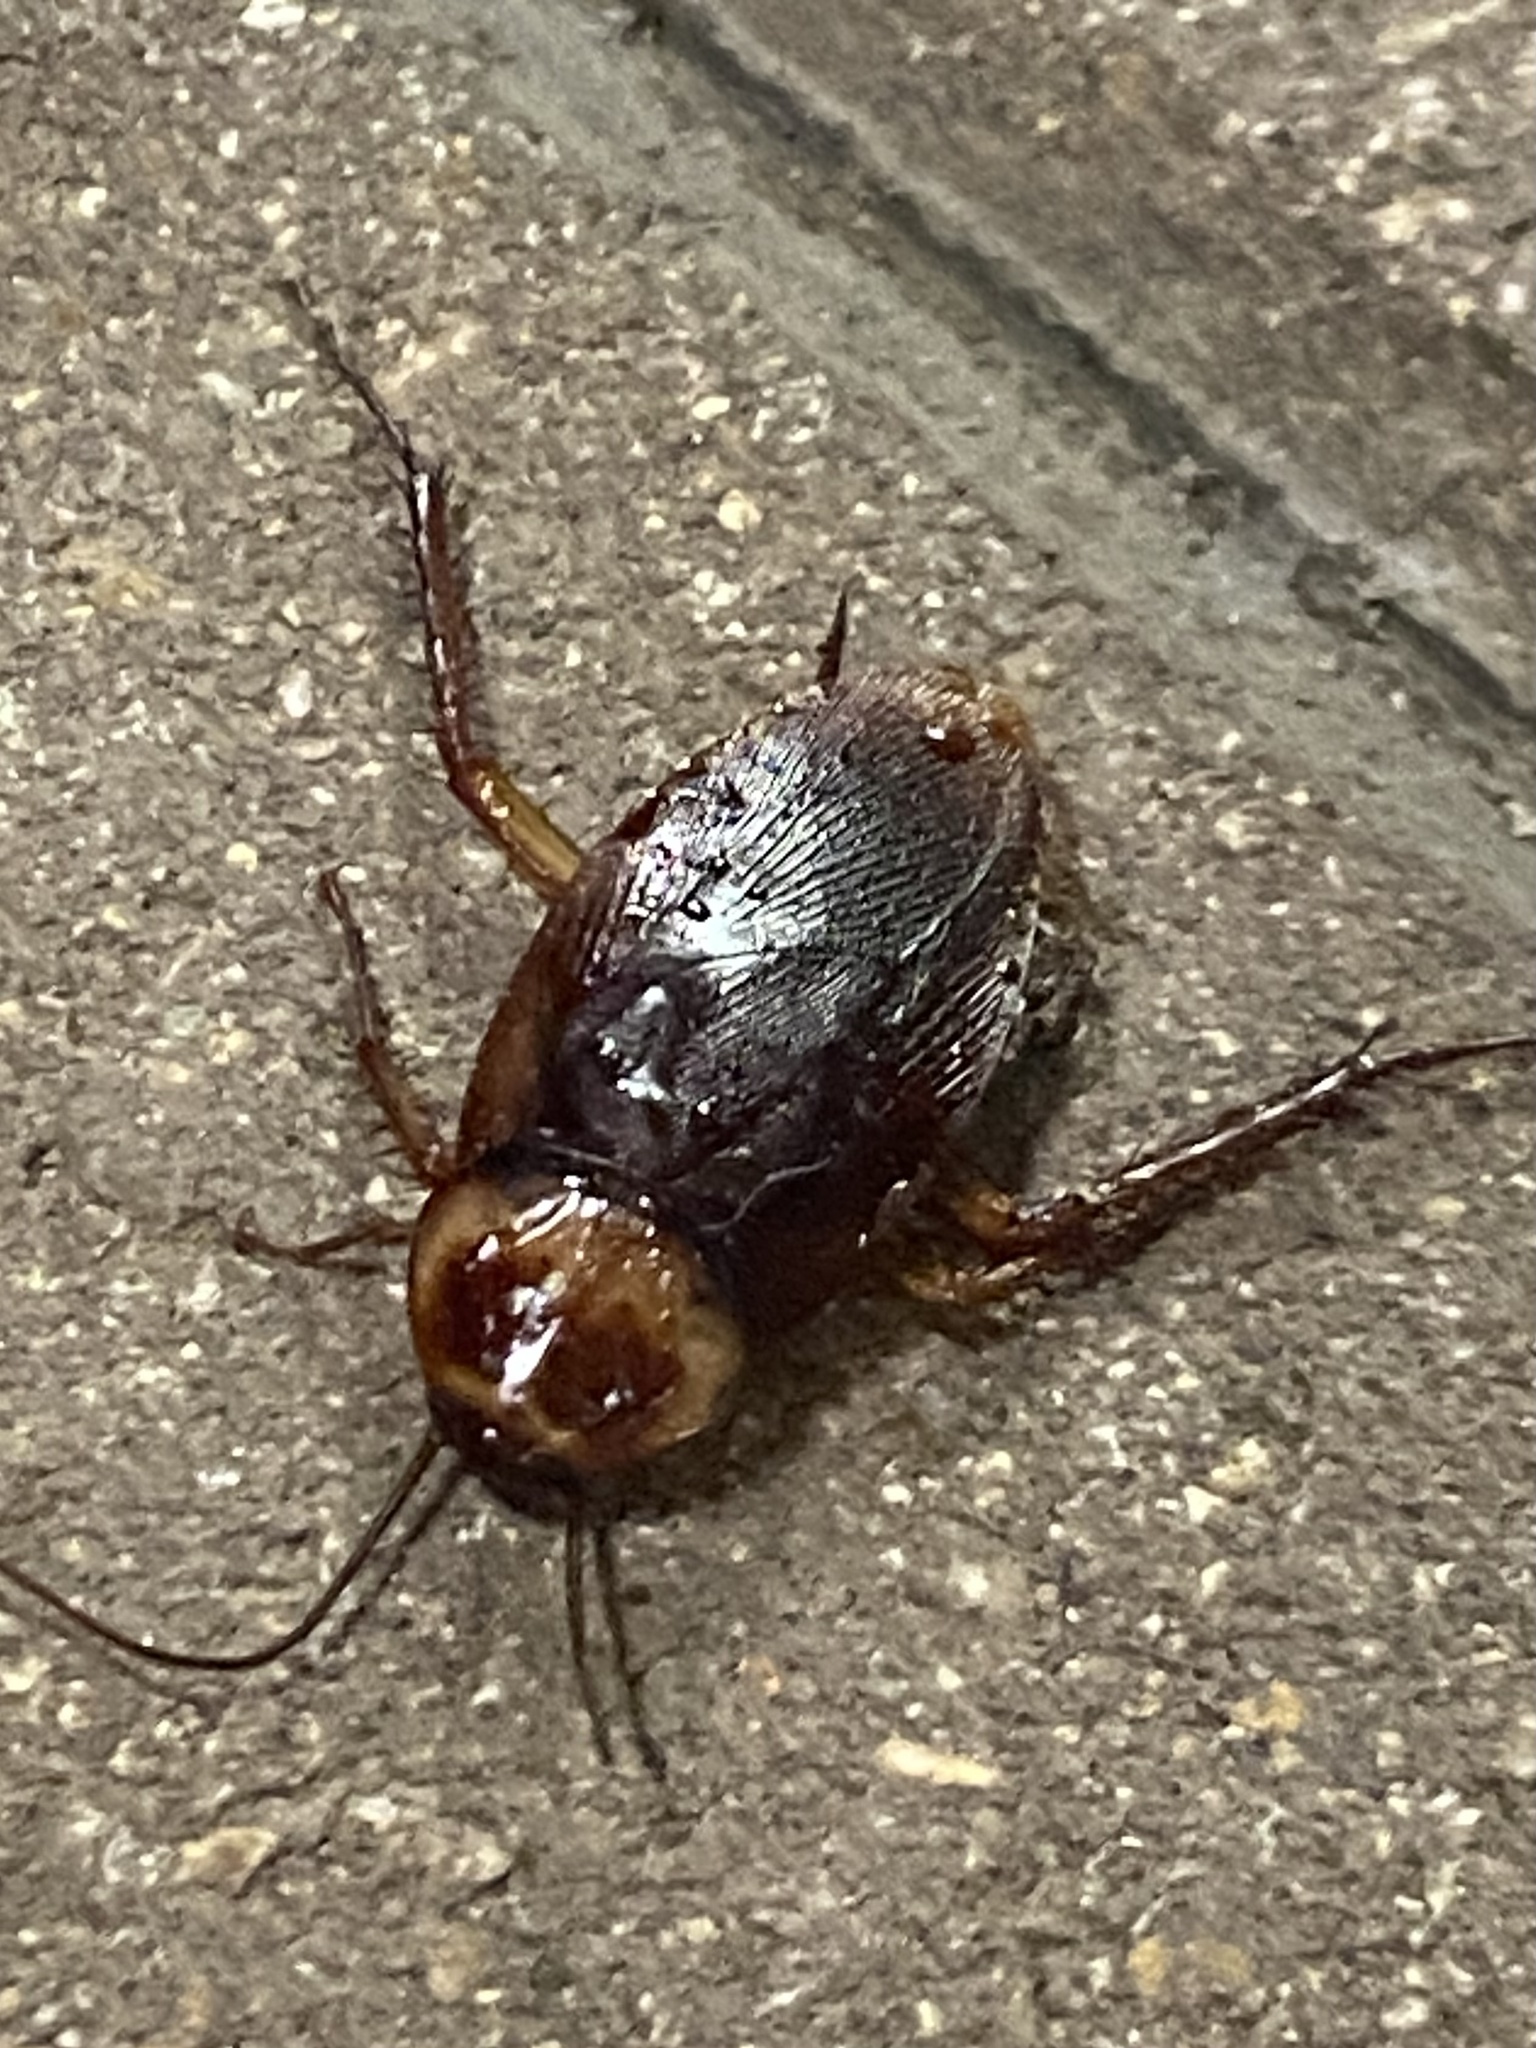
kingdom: Animalia
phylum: Arthropoda
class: Insecta
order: Blattodea
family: Blattidae
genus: Periplaneta
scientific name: Periplaneta americana
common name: American cockroach
